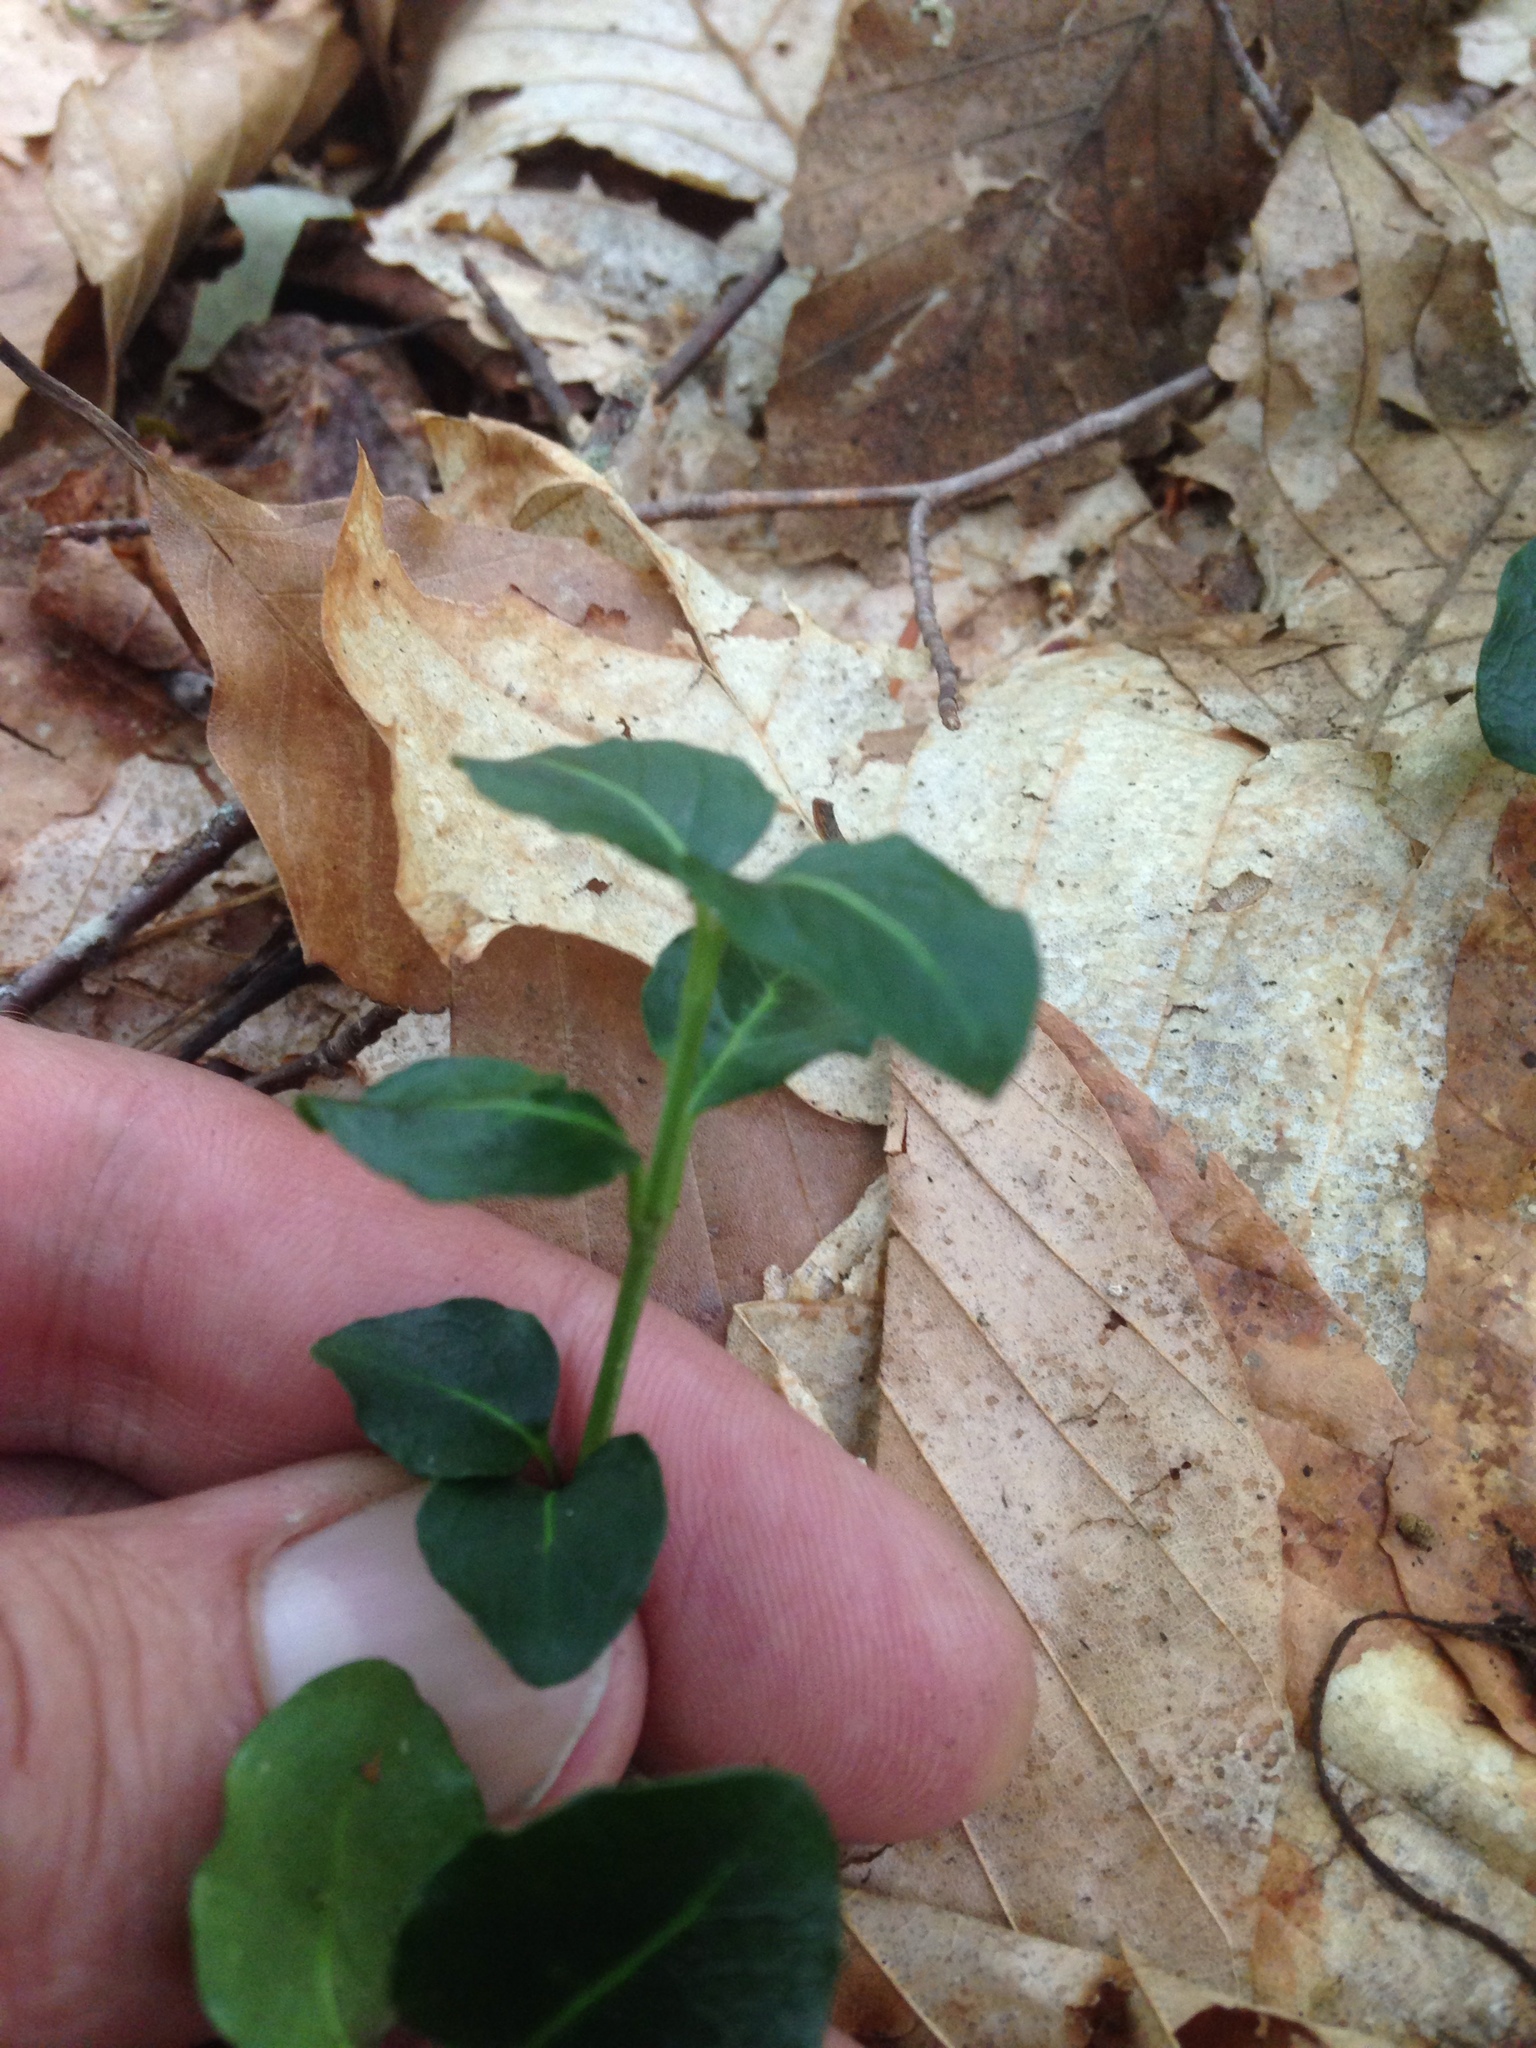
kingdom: Plantae
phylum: Tracheophyta
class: Magnoliopsida
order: Gentianales
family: Rubiaceae
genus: Mitchella
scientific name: Mitchella repens
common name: Partridge-berry
